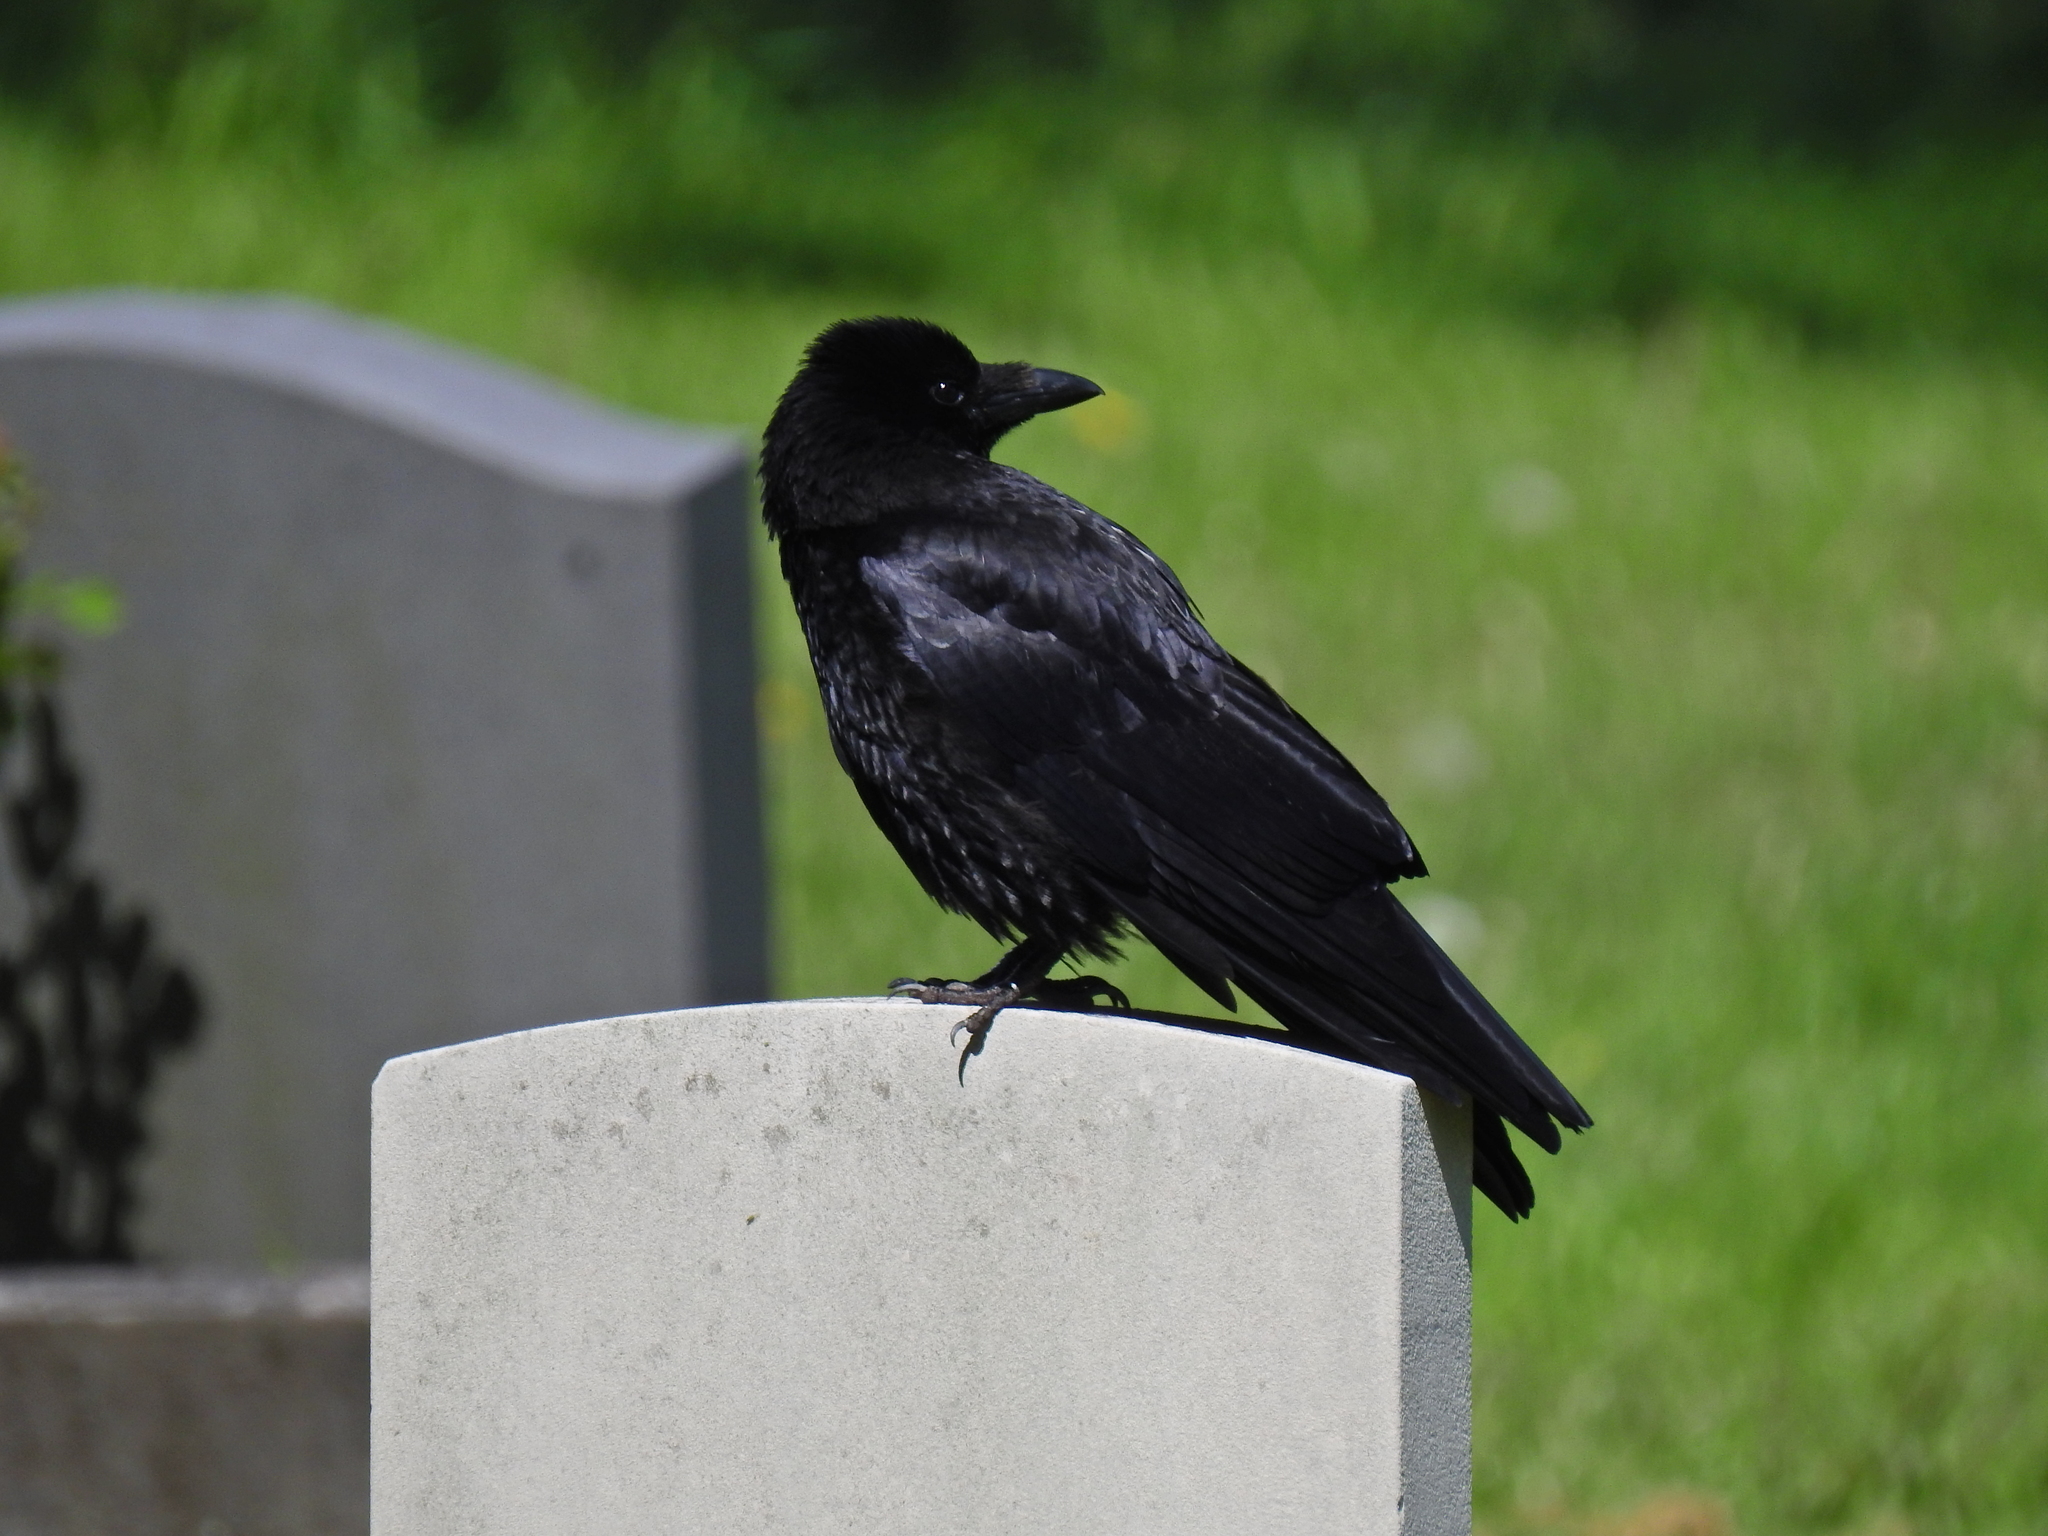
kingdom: Animalia
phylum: Chordata
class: Aves
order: Passeriformes
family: Corvidae
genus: Corvus
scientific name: Corvus corone
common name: Carrion crow
